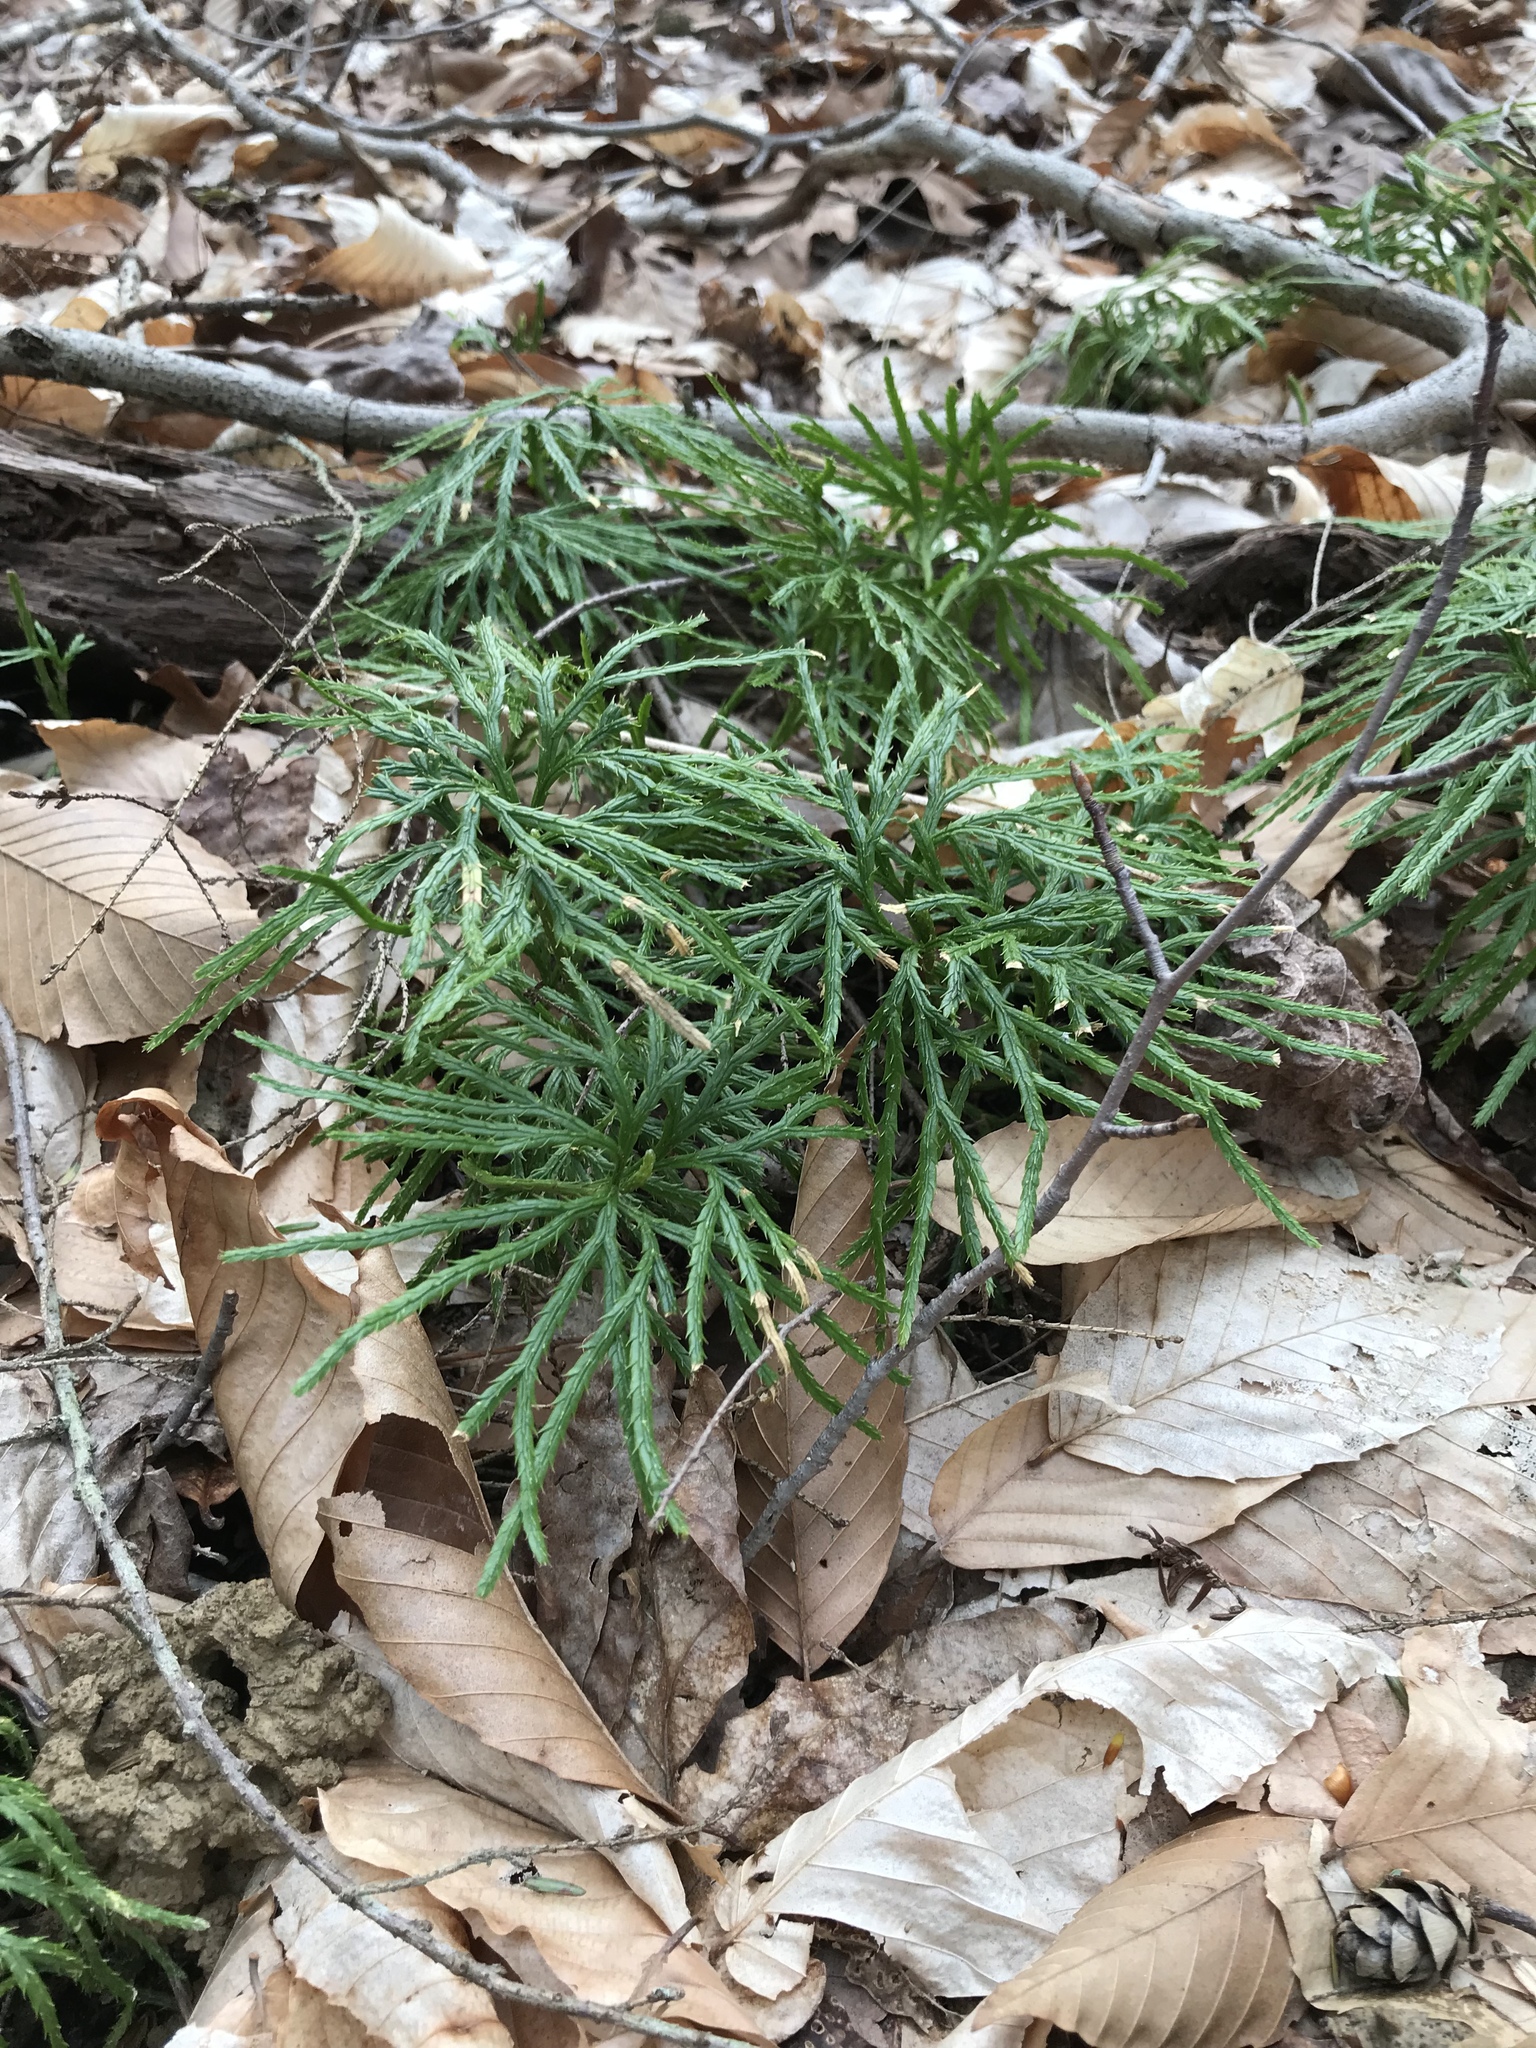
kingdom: Plantae
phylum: Tracheophyta
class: Lycopodiopsida
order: Lycopodiales
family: Lycopodiaceae
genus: Diphasiastrum
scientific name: Diphasiastrum digitatum
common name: Southern running-pine
